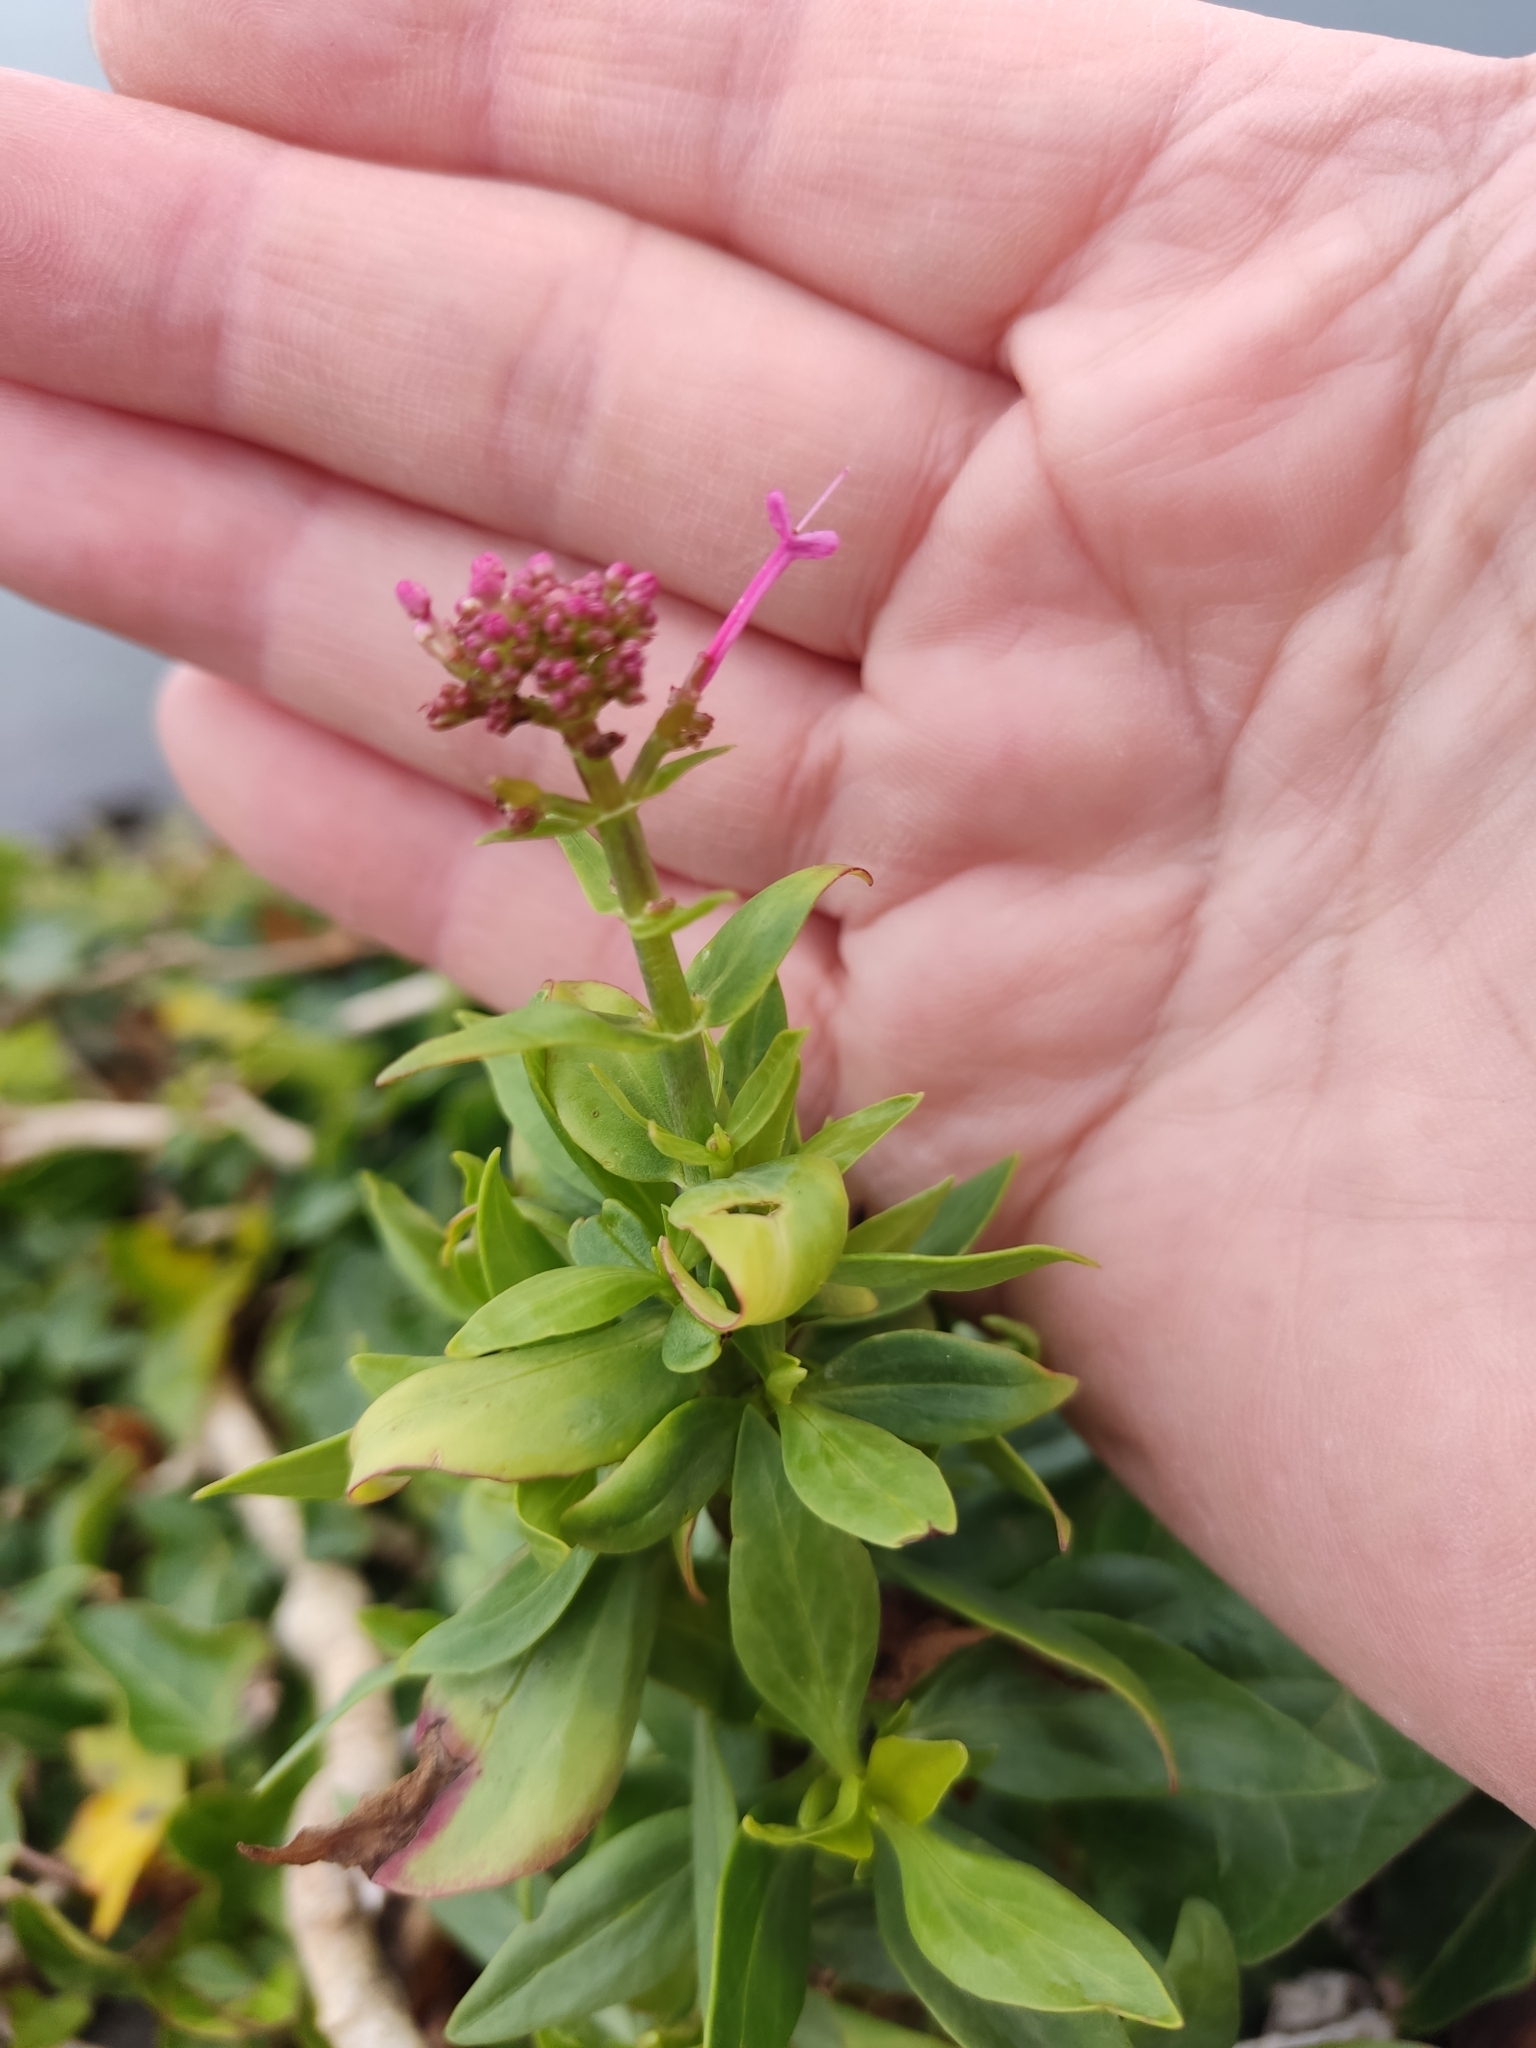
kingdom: Plantae
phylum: Tracheophyta
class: Magnoliopsida
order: Dipsacales
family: Caprifoliaceae
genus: Centranthus
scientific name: Centranthus ruber
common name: Red valerian
